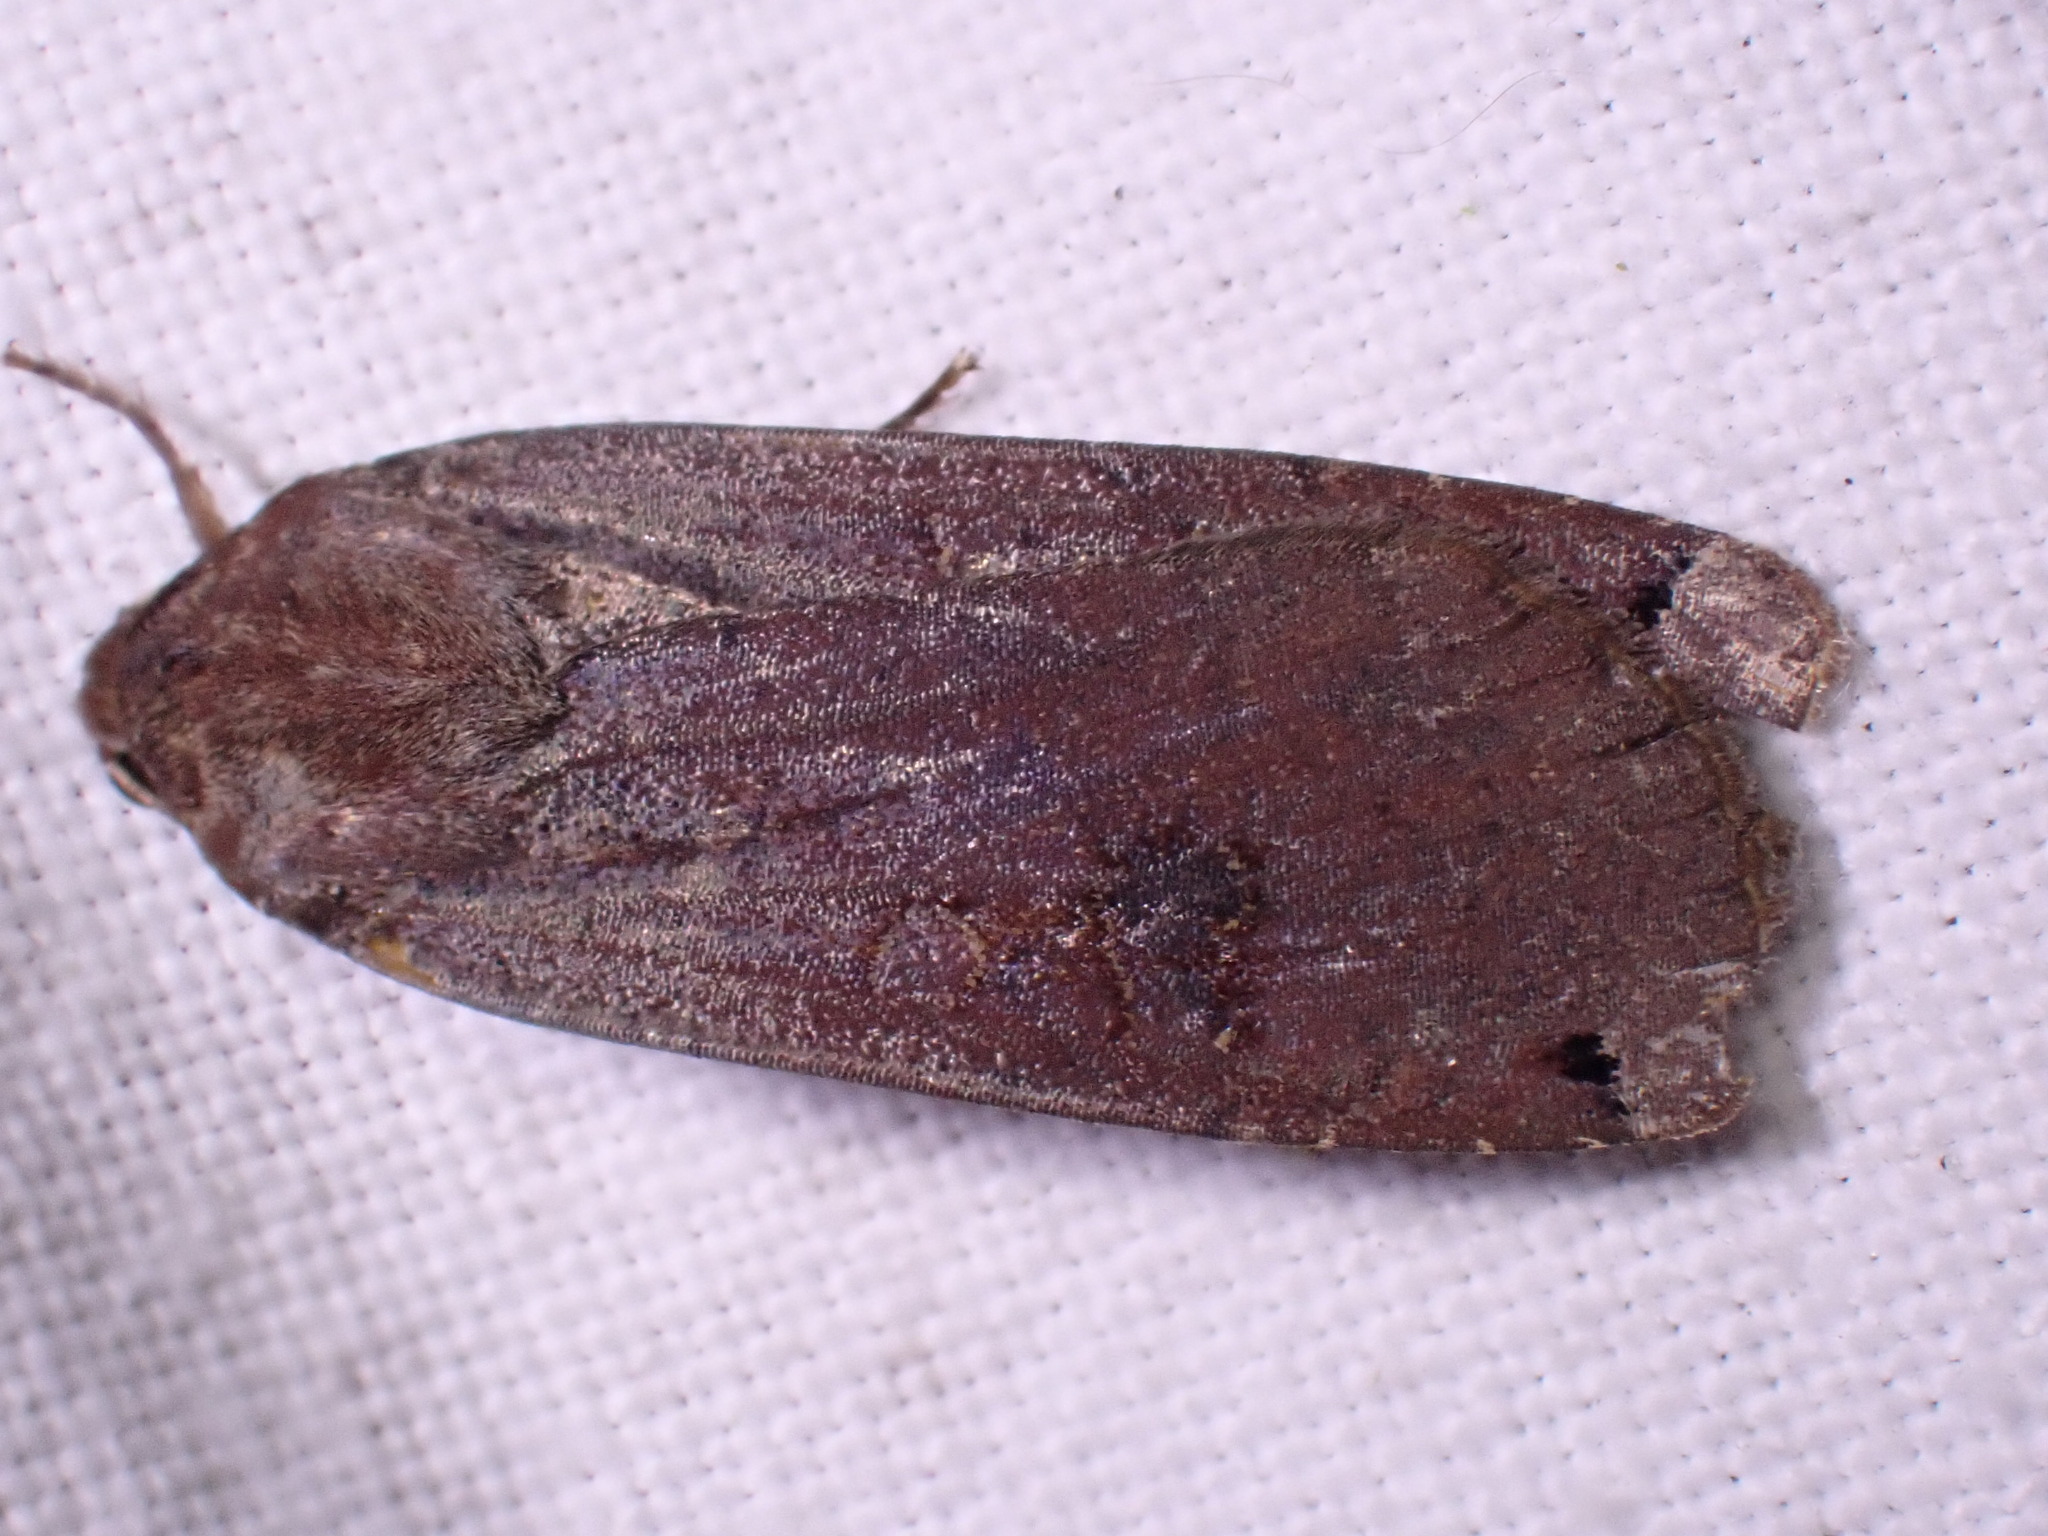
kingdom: Animalia
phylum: Arthropoda
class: Insecta
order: Lepidoptera
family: Noctuidae
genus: Noctua
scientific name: Noctua pronuba
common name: Large yellow underwing
